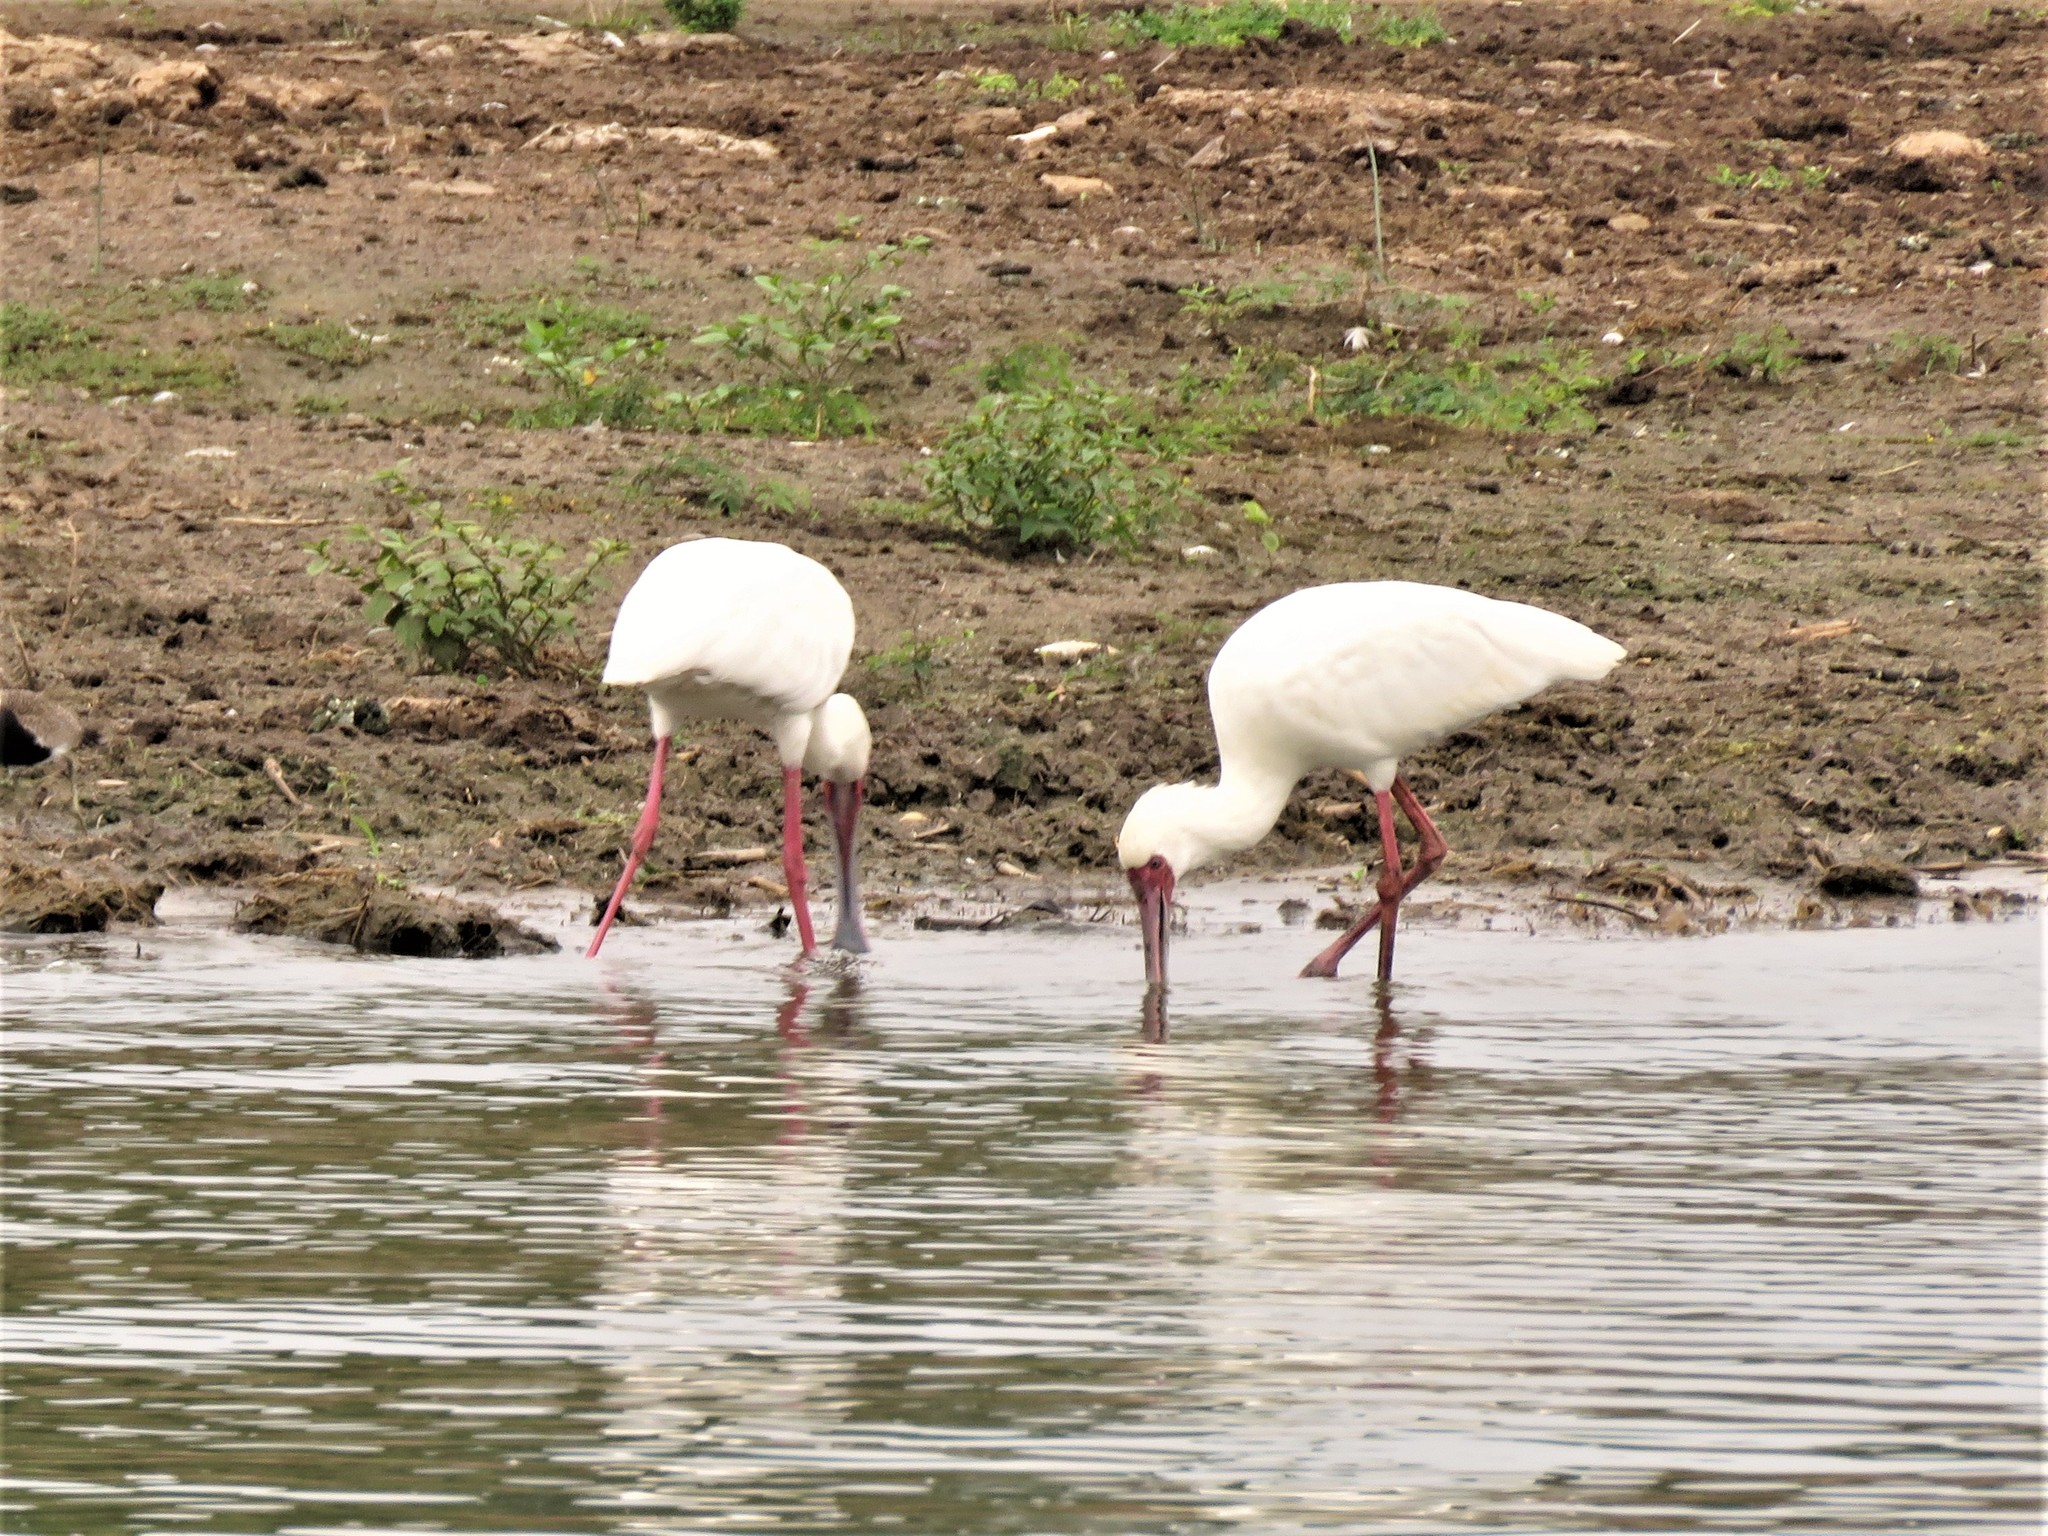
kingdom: Animalia
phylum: Chordata
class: Aves
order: Pelecaniformes
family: Threskiornithidae
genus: Platalea
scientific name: Platalea alba
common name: African spoonbill
